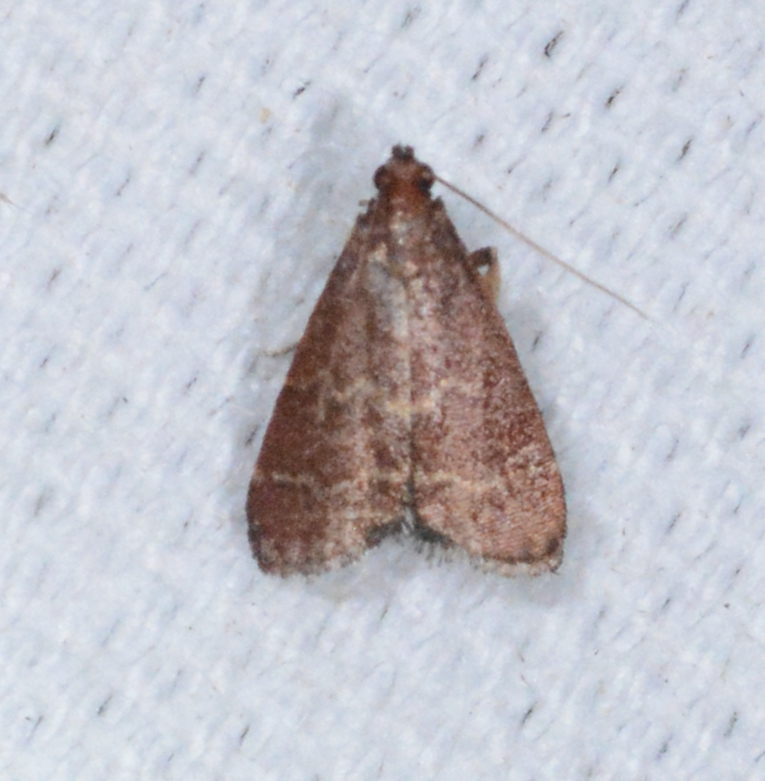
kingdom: Animalia
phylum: Arthropoda
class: Insecta
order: Lepidoptera
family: Pyralidae
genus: Arta
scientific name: Arta
